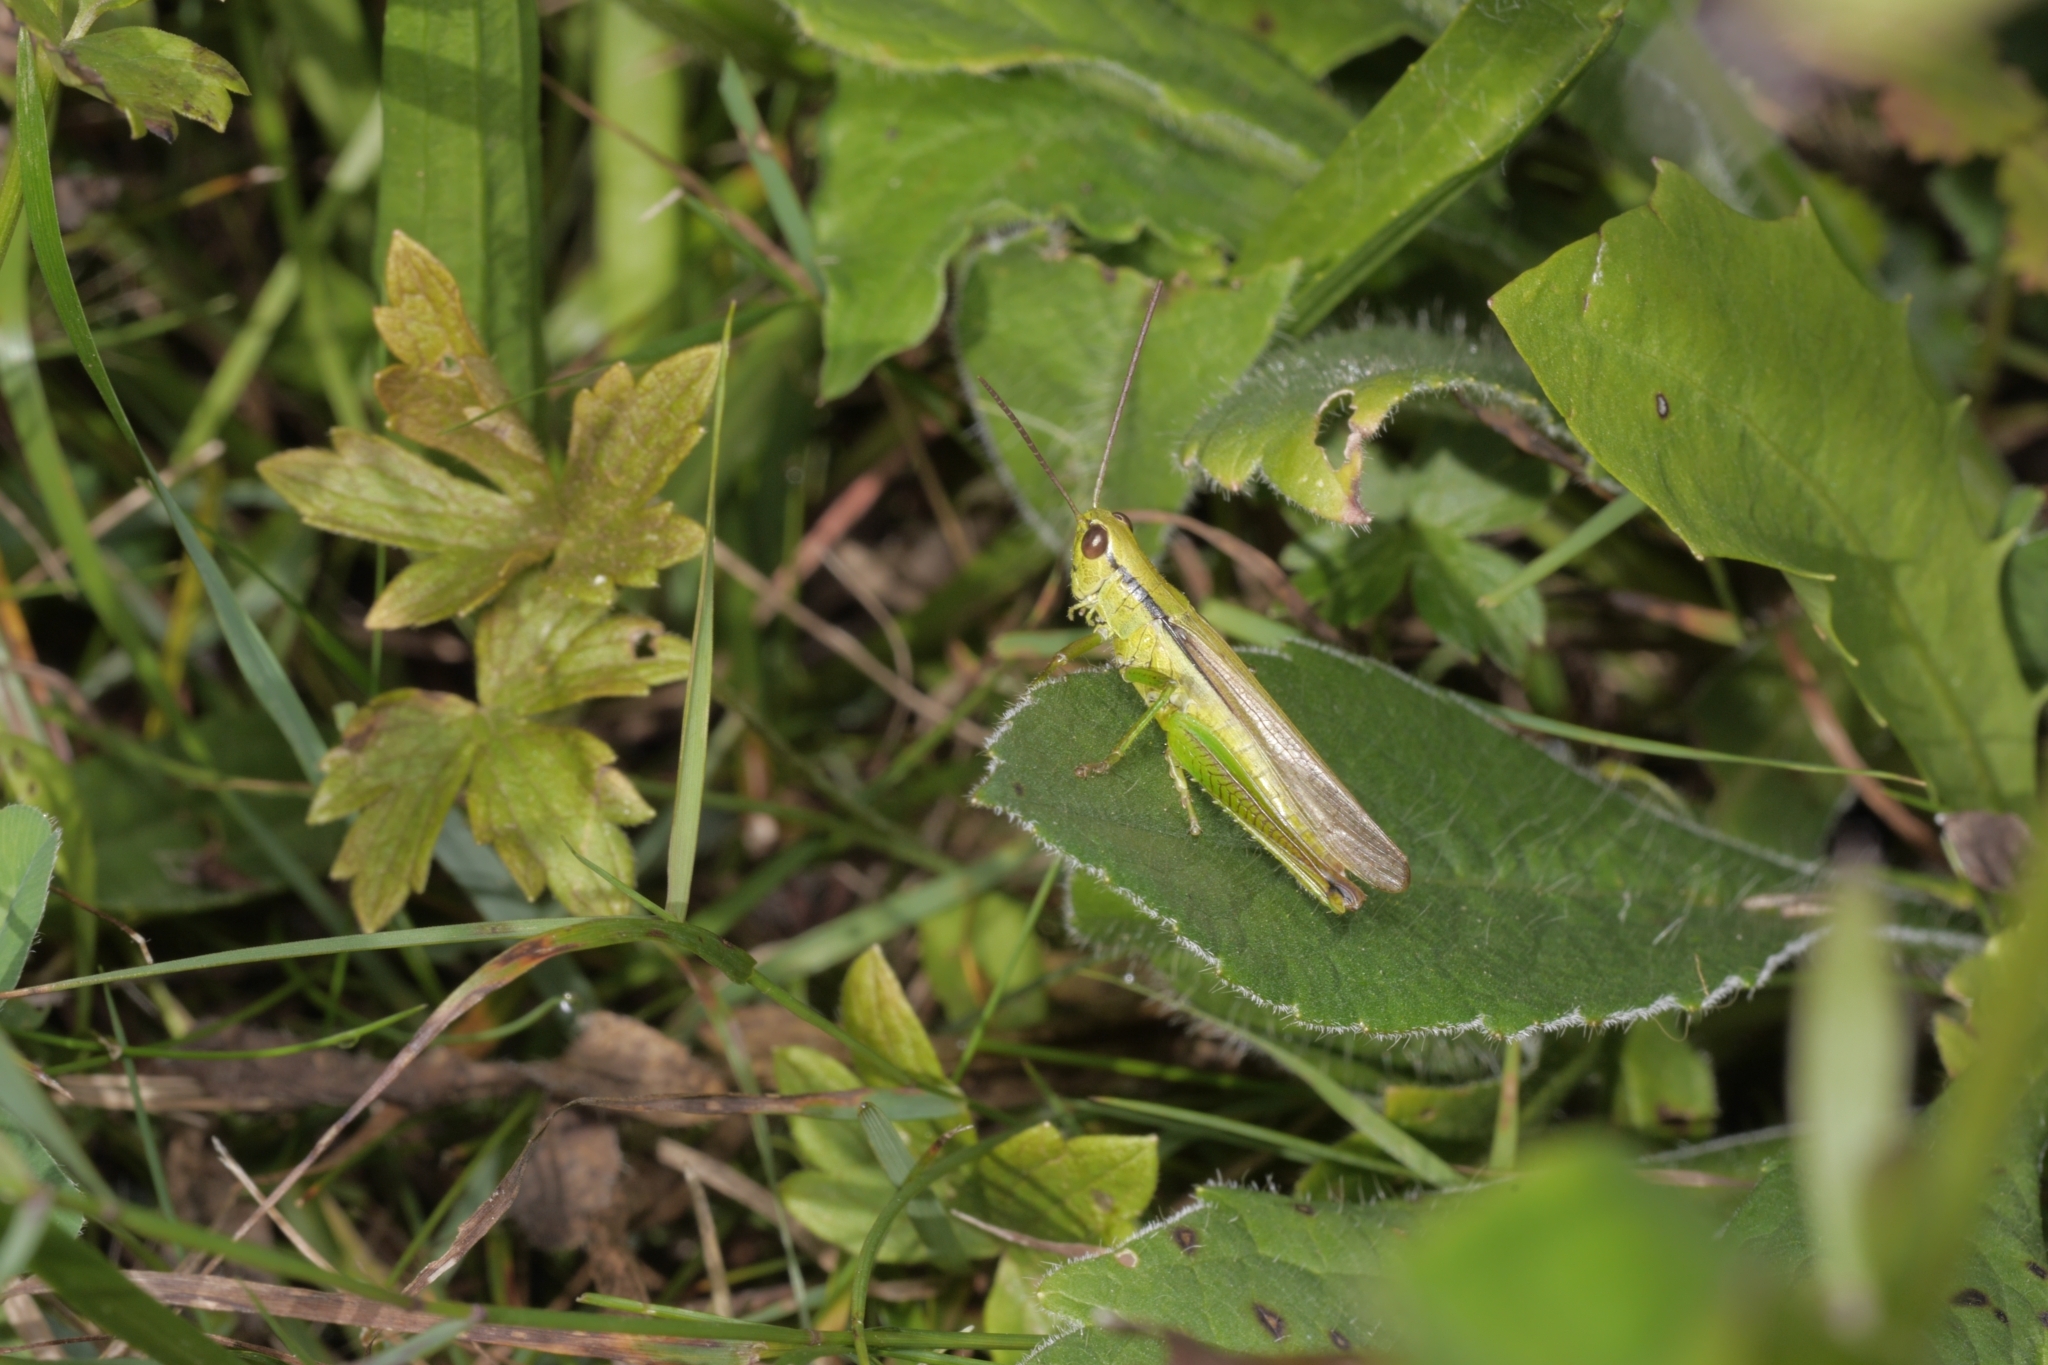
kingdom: Animalia
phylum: Arthropoda
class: Insecta
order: Orthoptera
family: Acrididae
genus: Mecostethus
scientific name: Mecostethus parapleurus
